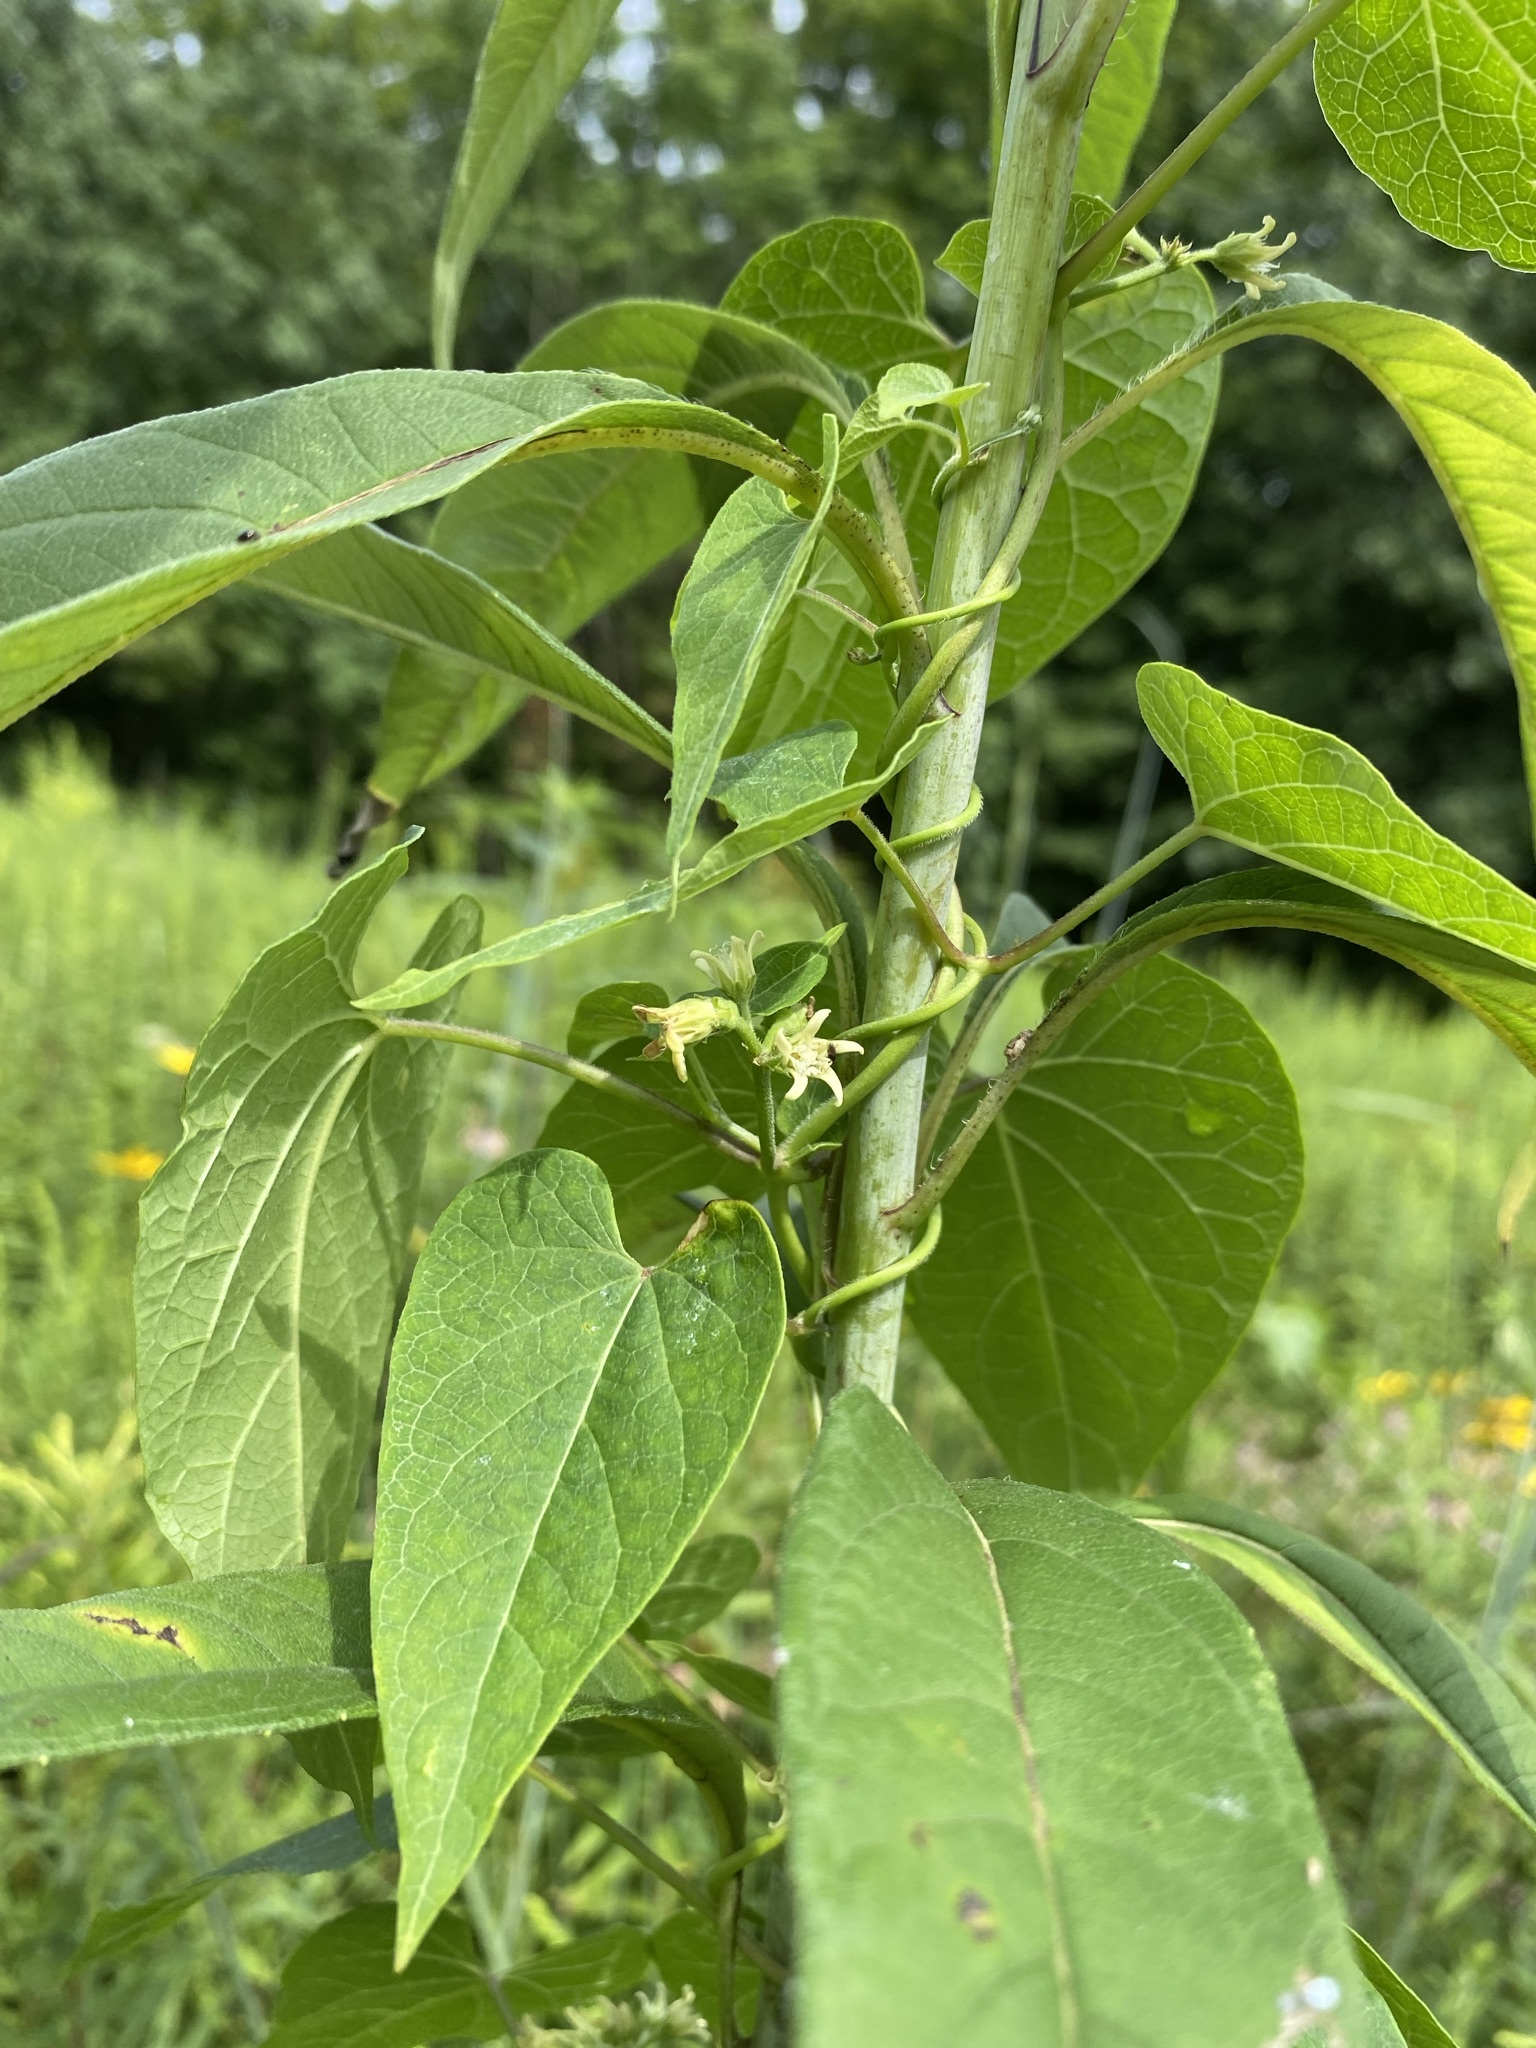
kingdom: Plantae
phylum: Tracheophyta
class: Magnoliopsida
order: Gentianales
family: Apocynaceae
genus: Cynanchum
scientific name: Cynanchum laeve
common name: Sandvine
